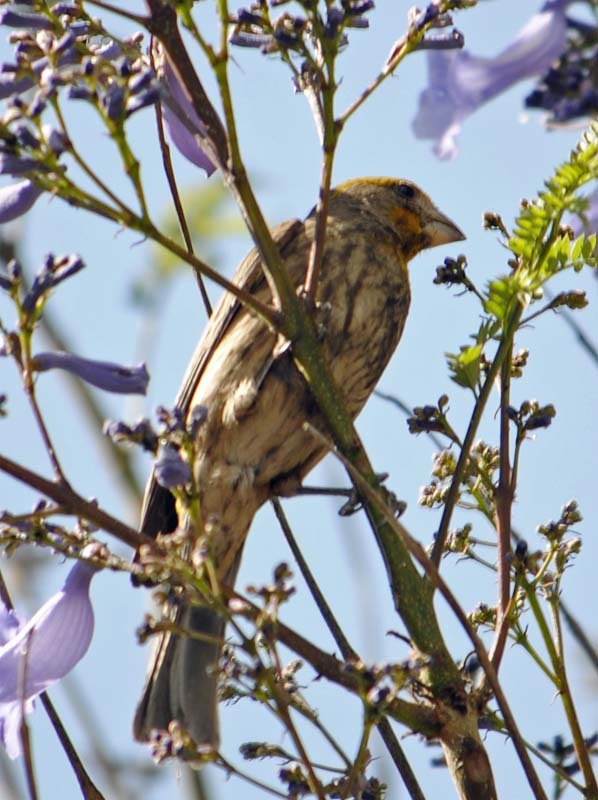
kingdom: Animalia
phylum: Chordata
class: Aves
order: Passeriformes
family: Fringillidae
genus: Haemorhous
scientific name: Haemorhous mexicanus
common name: House finch
